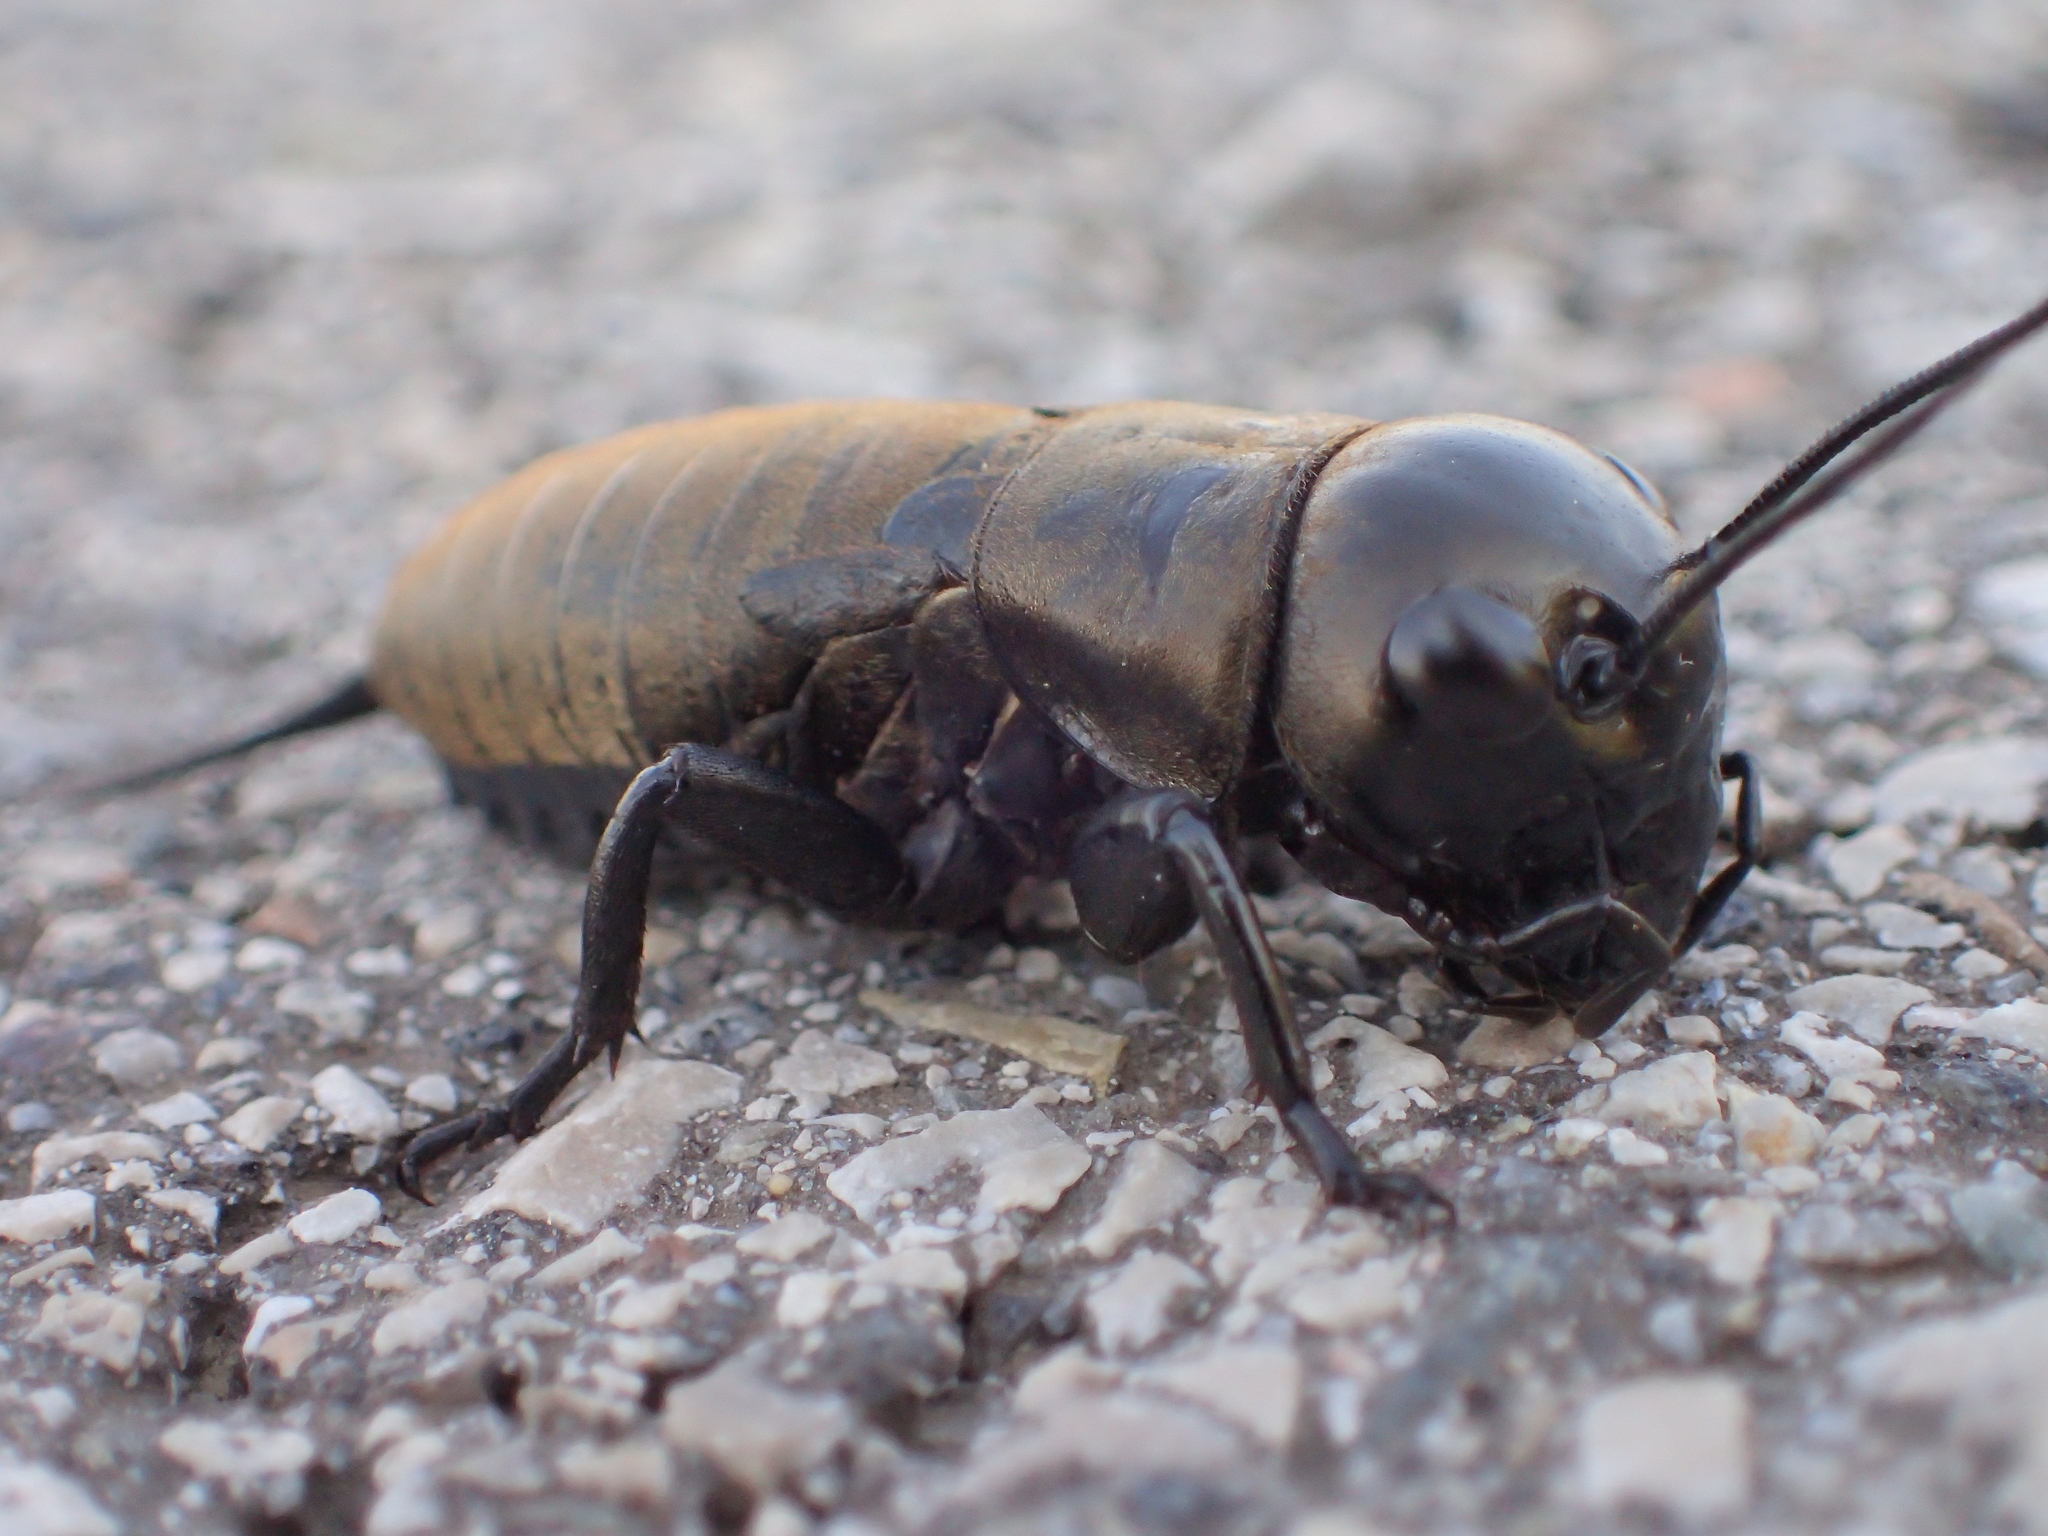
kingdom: Animalia
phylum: Arthropoda
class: Insecta
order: Orthoptera
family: Gryllidae
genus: Gryllus
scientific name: Gryllus campestris
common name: Field cricket
